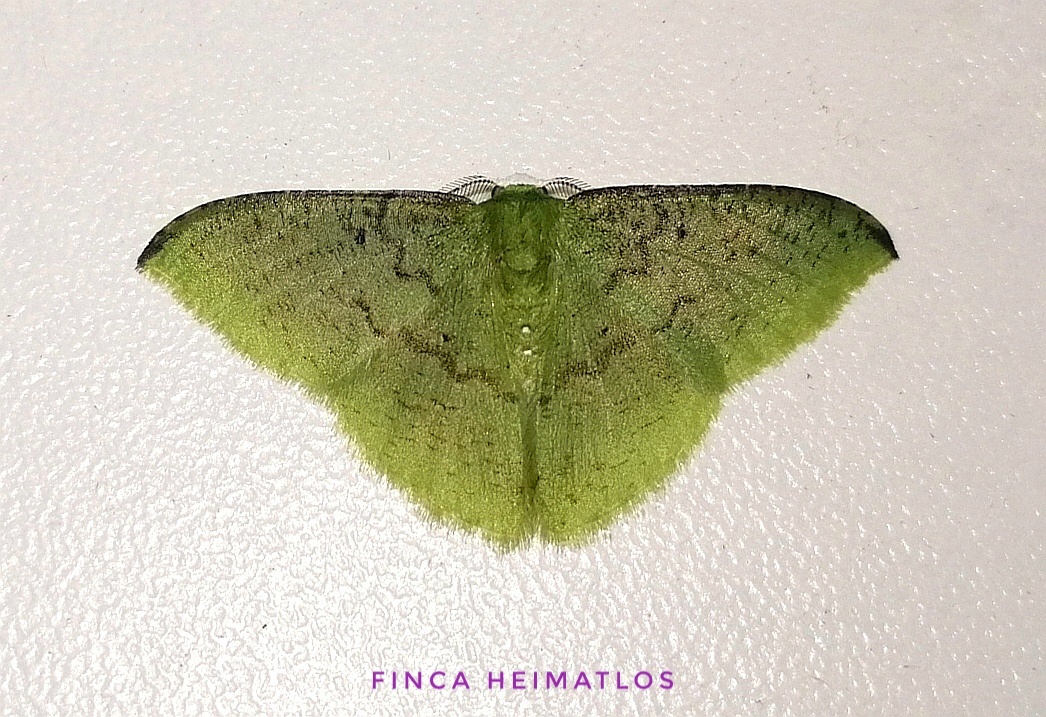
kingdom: Animalia
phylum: Arthropoda
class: Insecta
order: Lepidoptera
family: Geometridae
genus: Tachyphyle
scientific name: Tachyphyle undilineata
